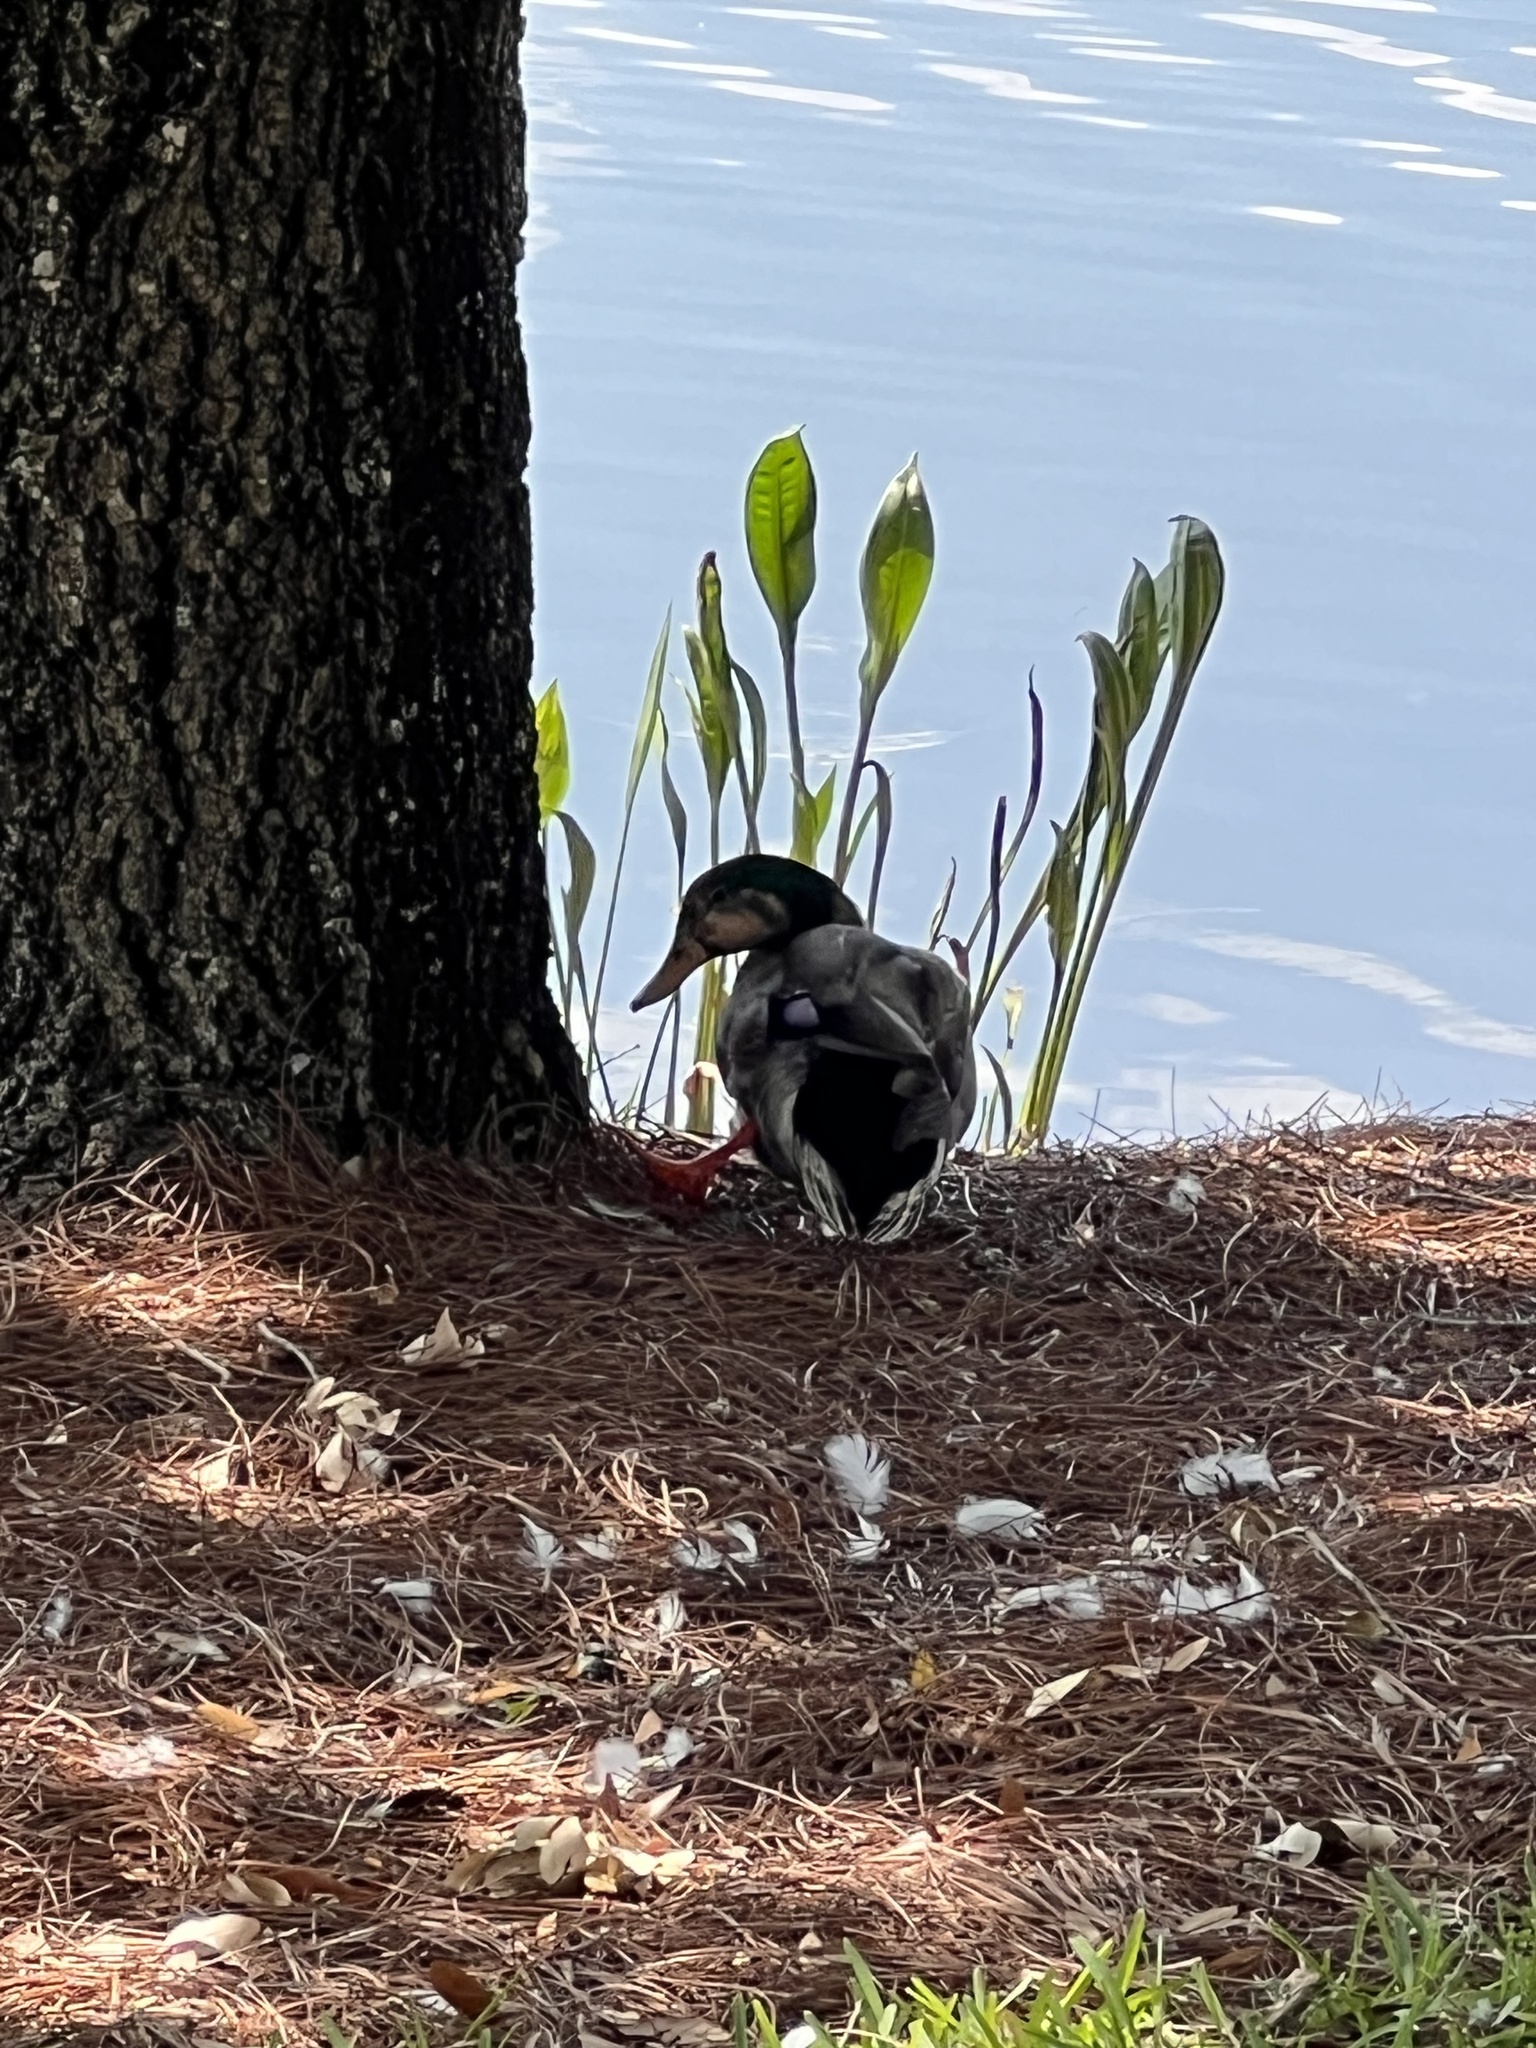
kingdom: Animalia
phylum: Chordata
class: Aves
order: Anseriformes
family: Anatidae
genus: Anas
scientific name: Anas platyrhynchos
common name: Mallard
